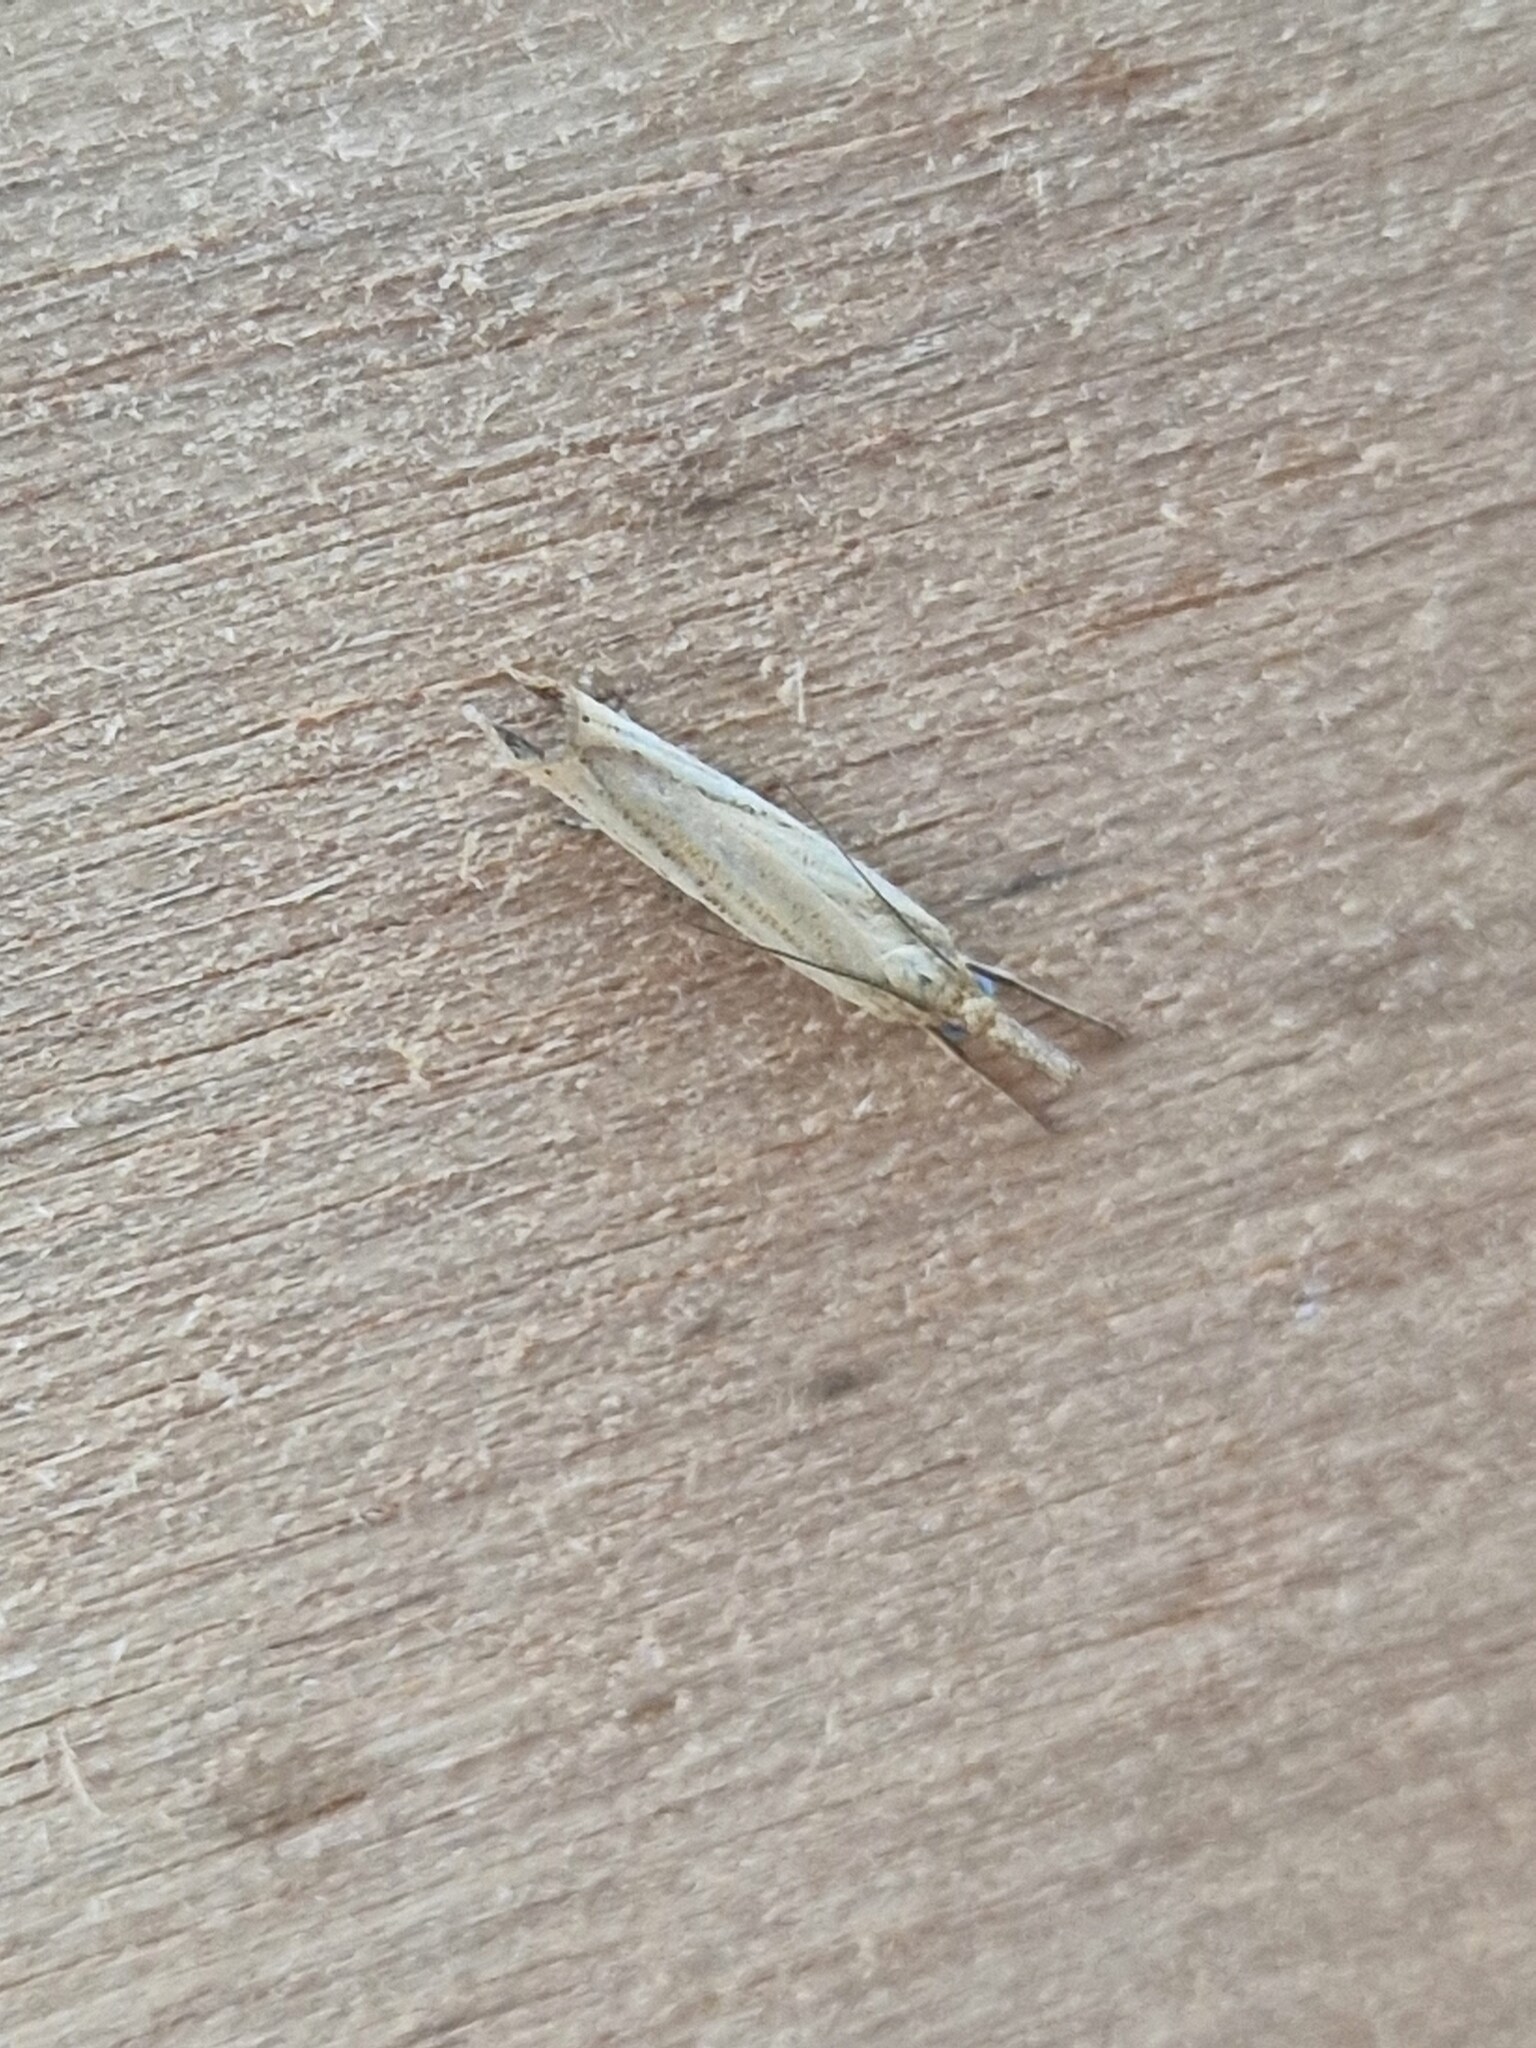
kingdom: Animalia
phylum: Arthropoda
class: Insecta
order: Lepidoptera
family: Crambidae
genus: Agriphila
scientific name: Agriphila straminella
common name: Straw grass-veneer
